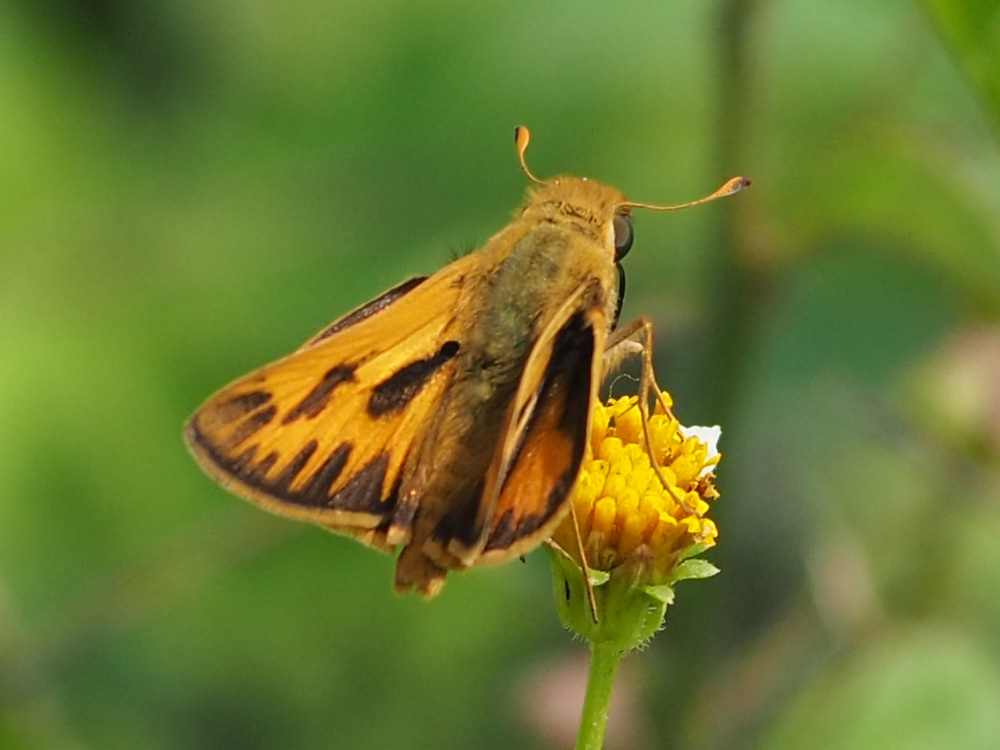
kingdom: Animalia
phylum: Arthropoda
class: Insecta
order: Lepidoptera
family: Hesperiidae
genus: Hylephila
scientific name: Hylephila phyleus
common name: Fiery skipper
